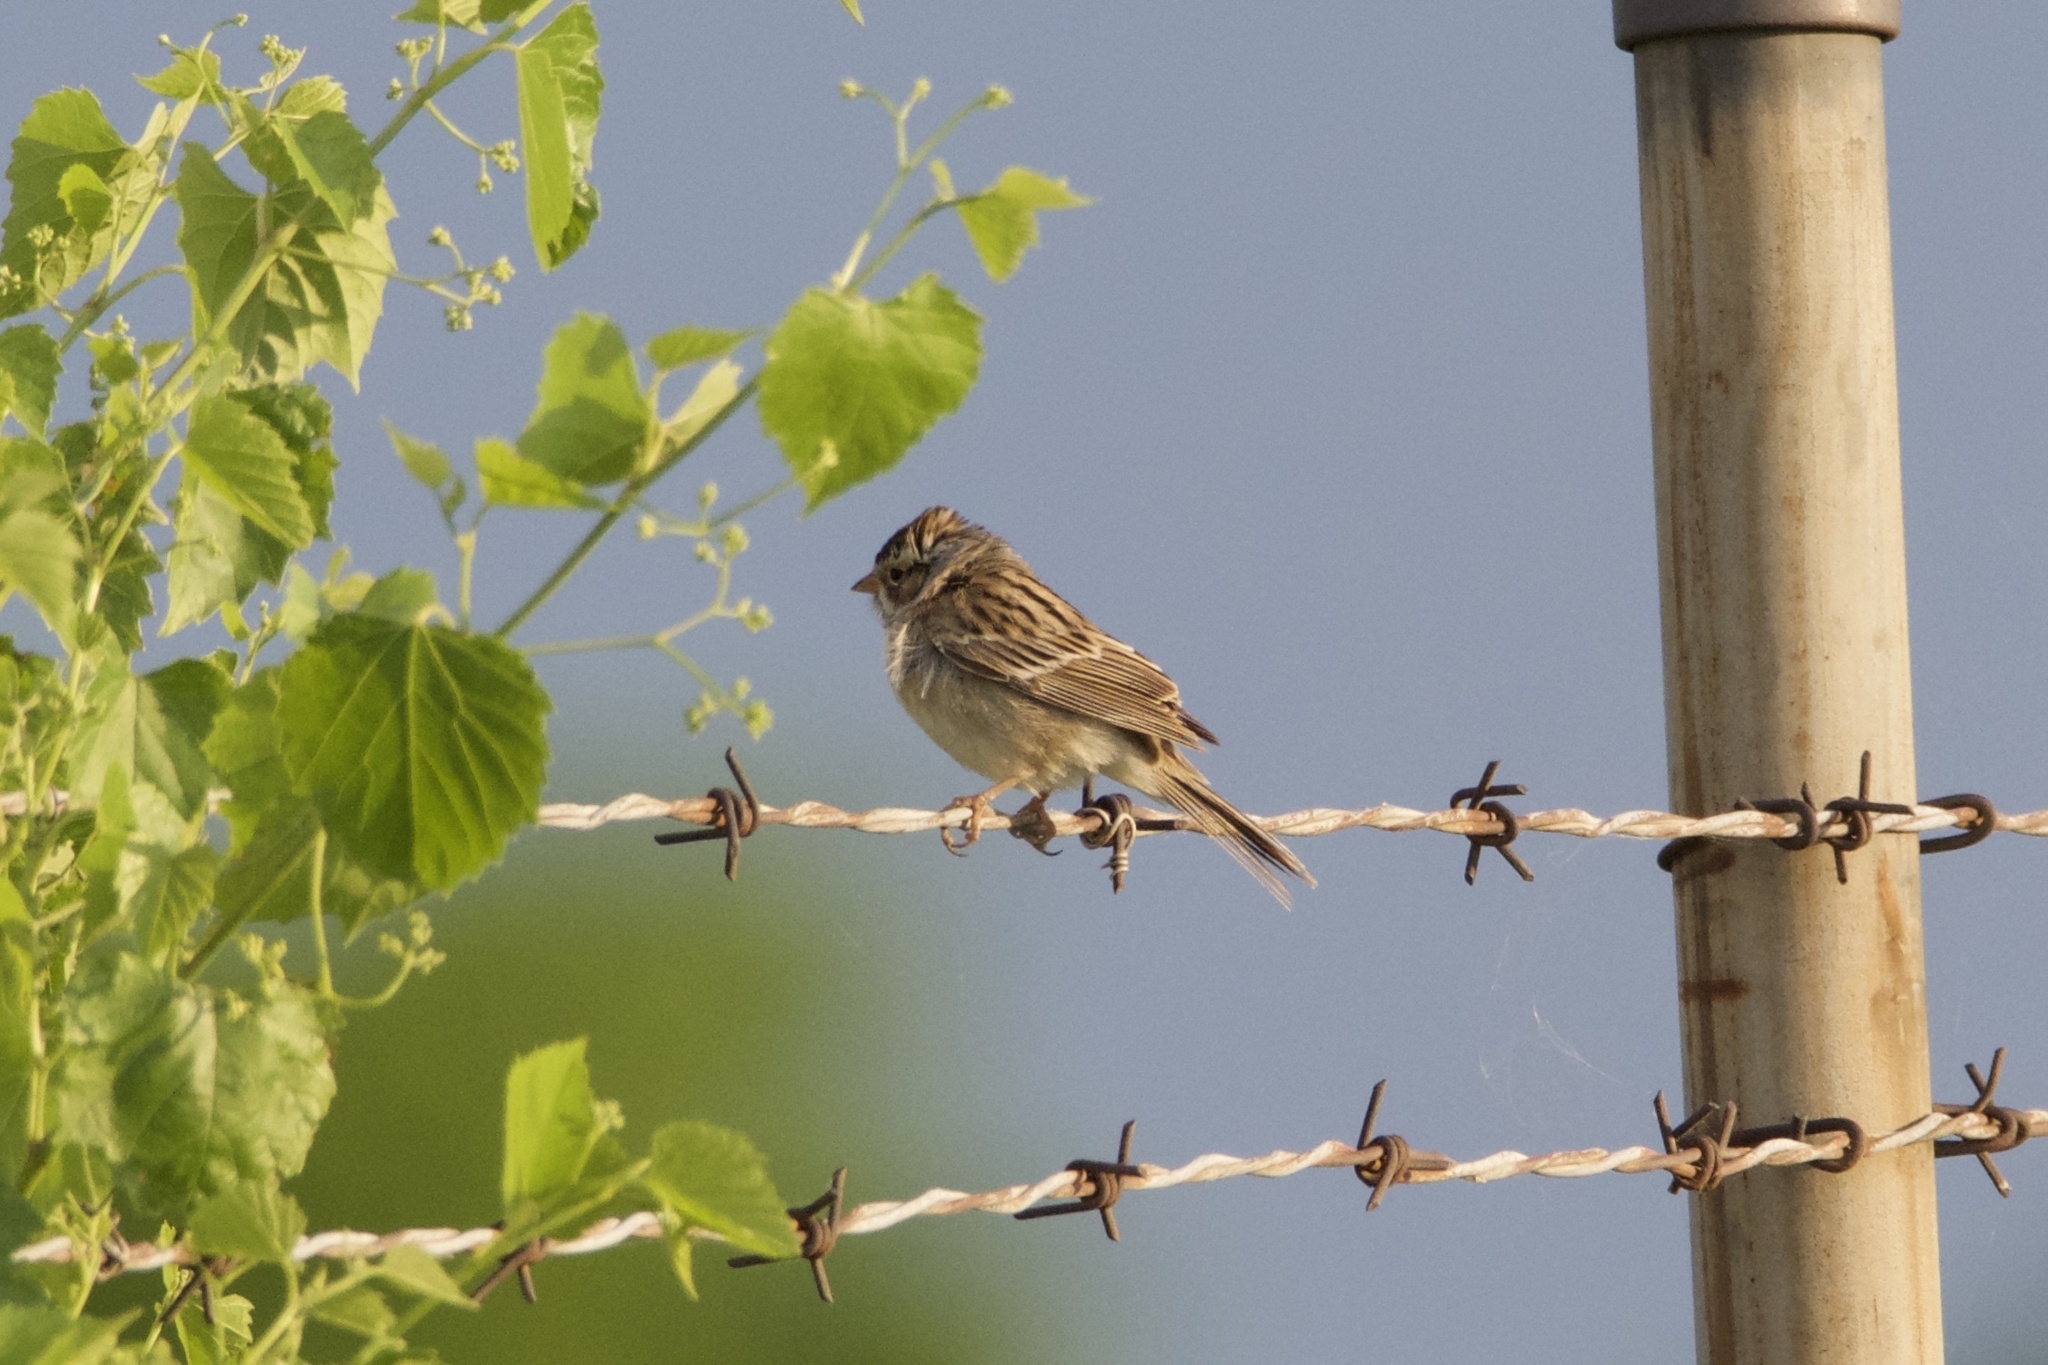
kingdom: Animalia
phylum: Chordata
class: Aves
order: Passeriformes
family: Passerellidae
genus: Spizella
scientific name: Spizella pallida
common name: Clay-colored sparrow
